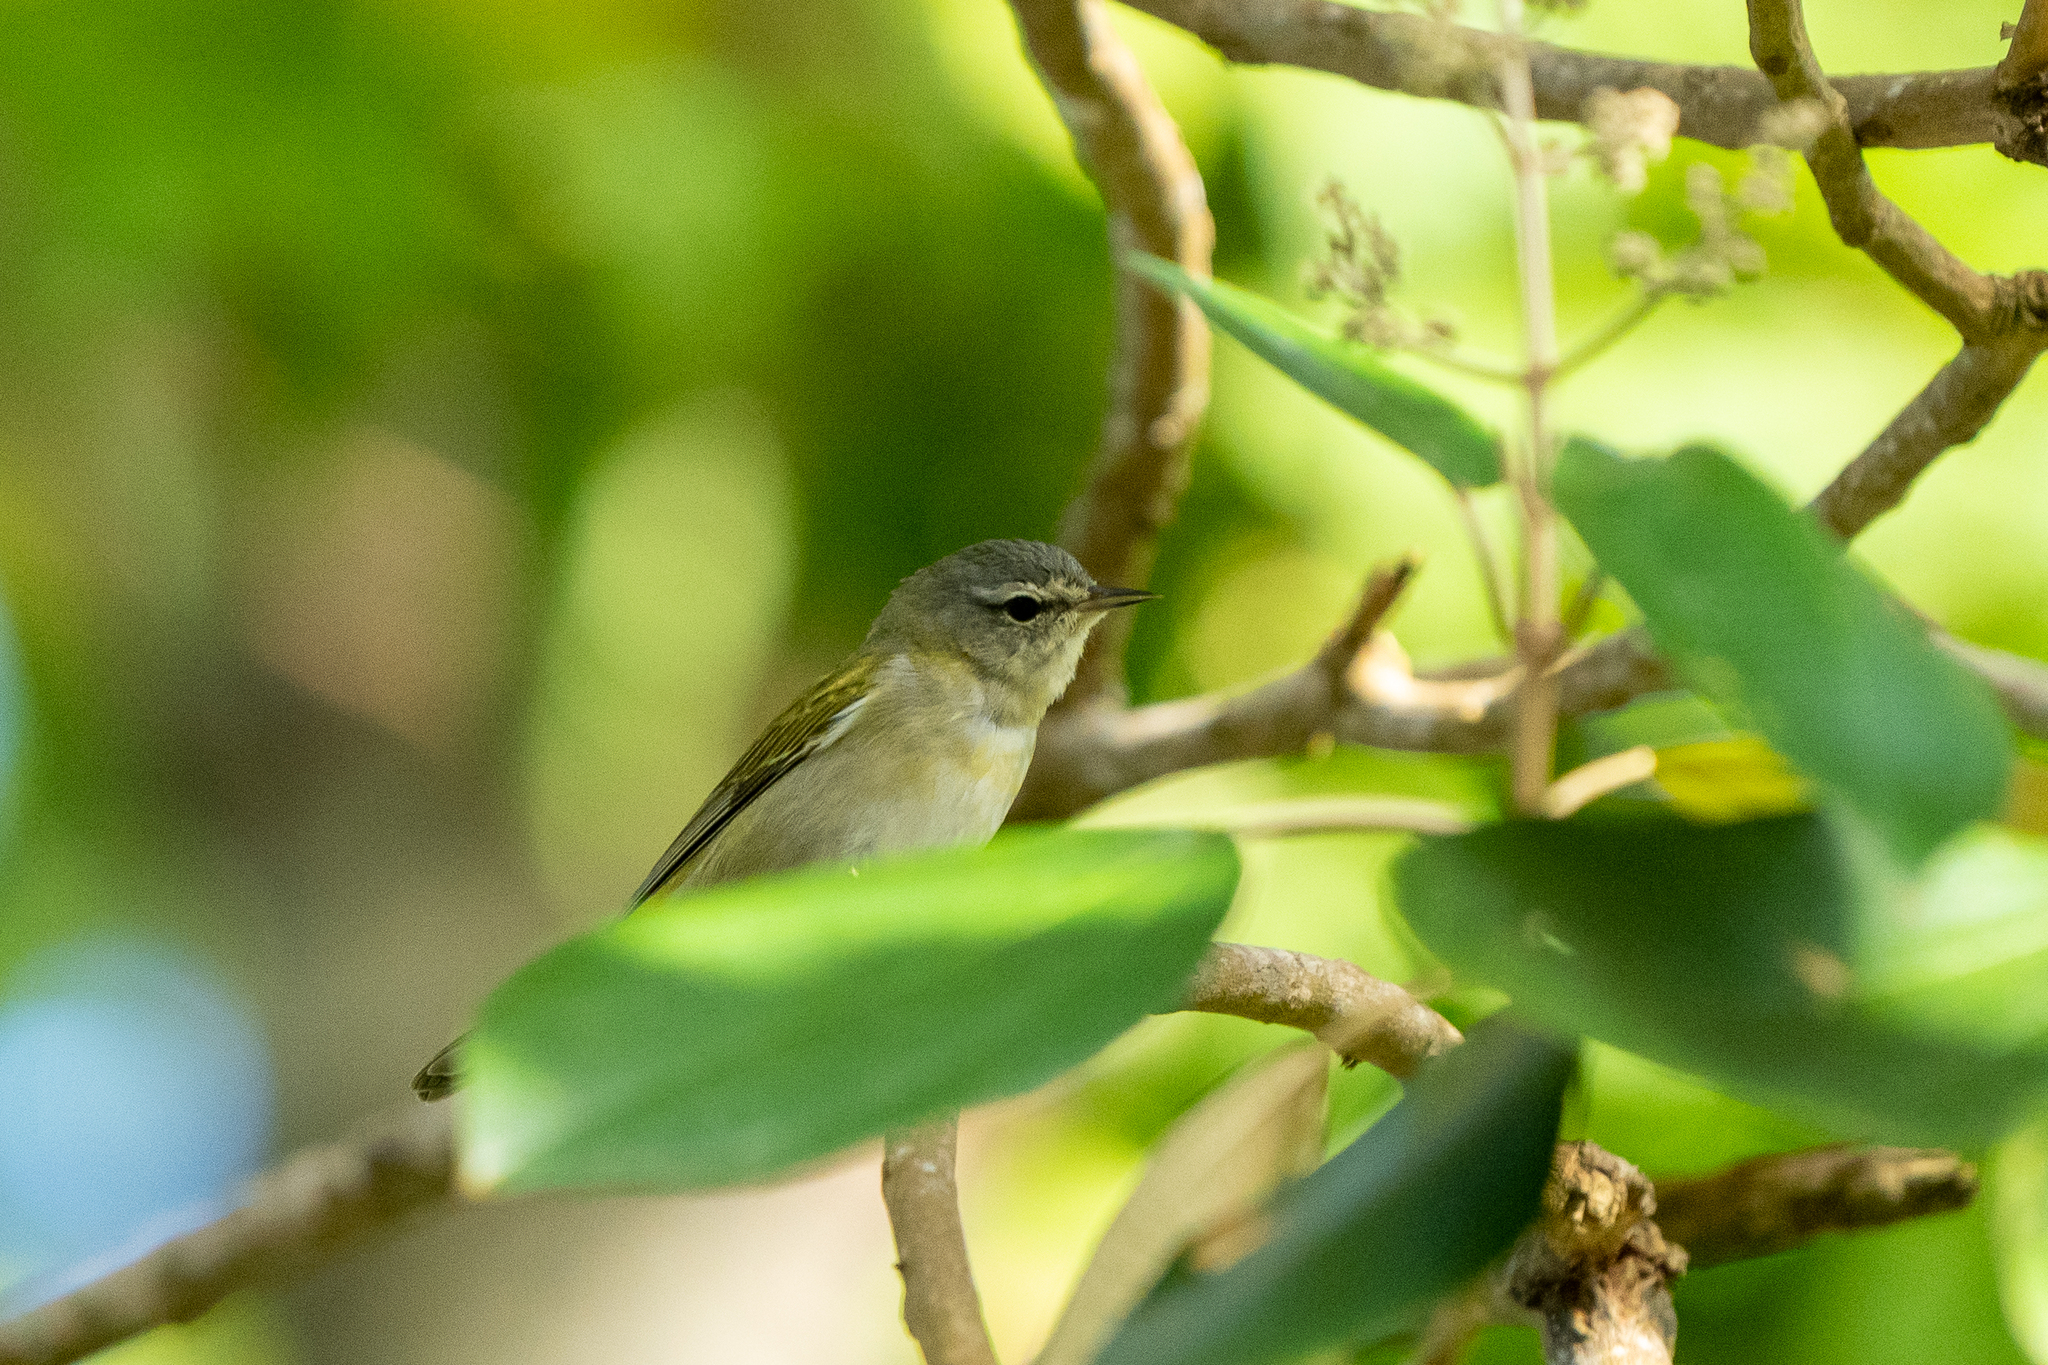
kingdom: Animalia
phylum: Chordata
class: Aves
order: Passeriformes
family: Parulidae
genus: Leiothlypis
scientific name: Leiothlypis peregrina
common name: Tennessee warbler
